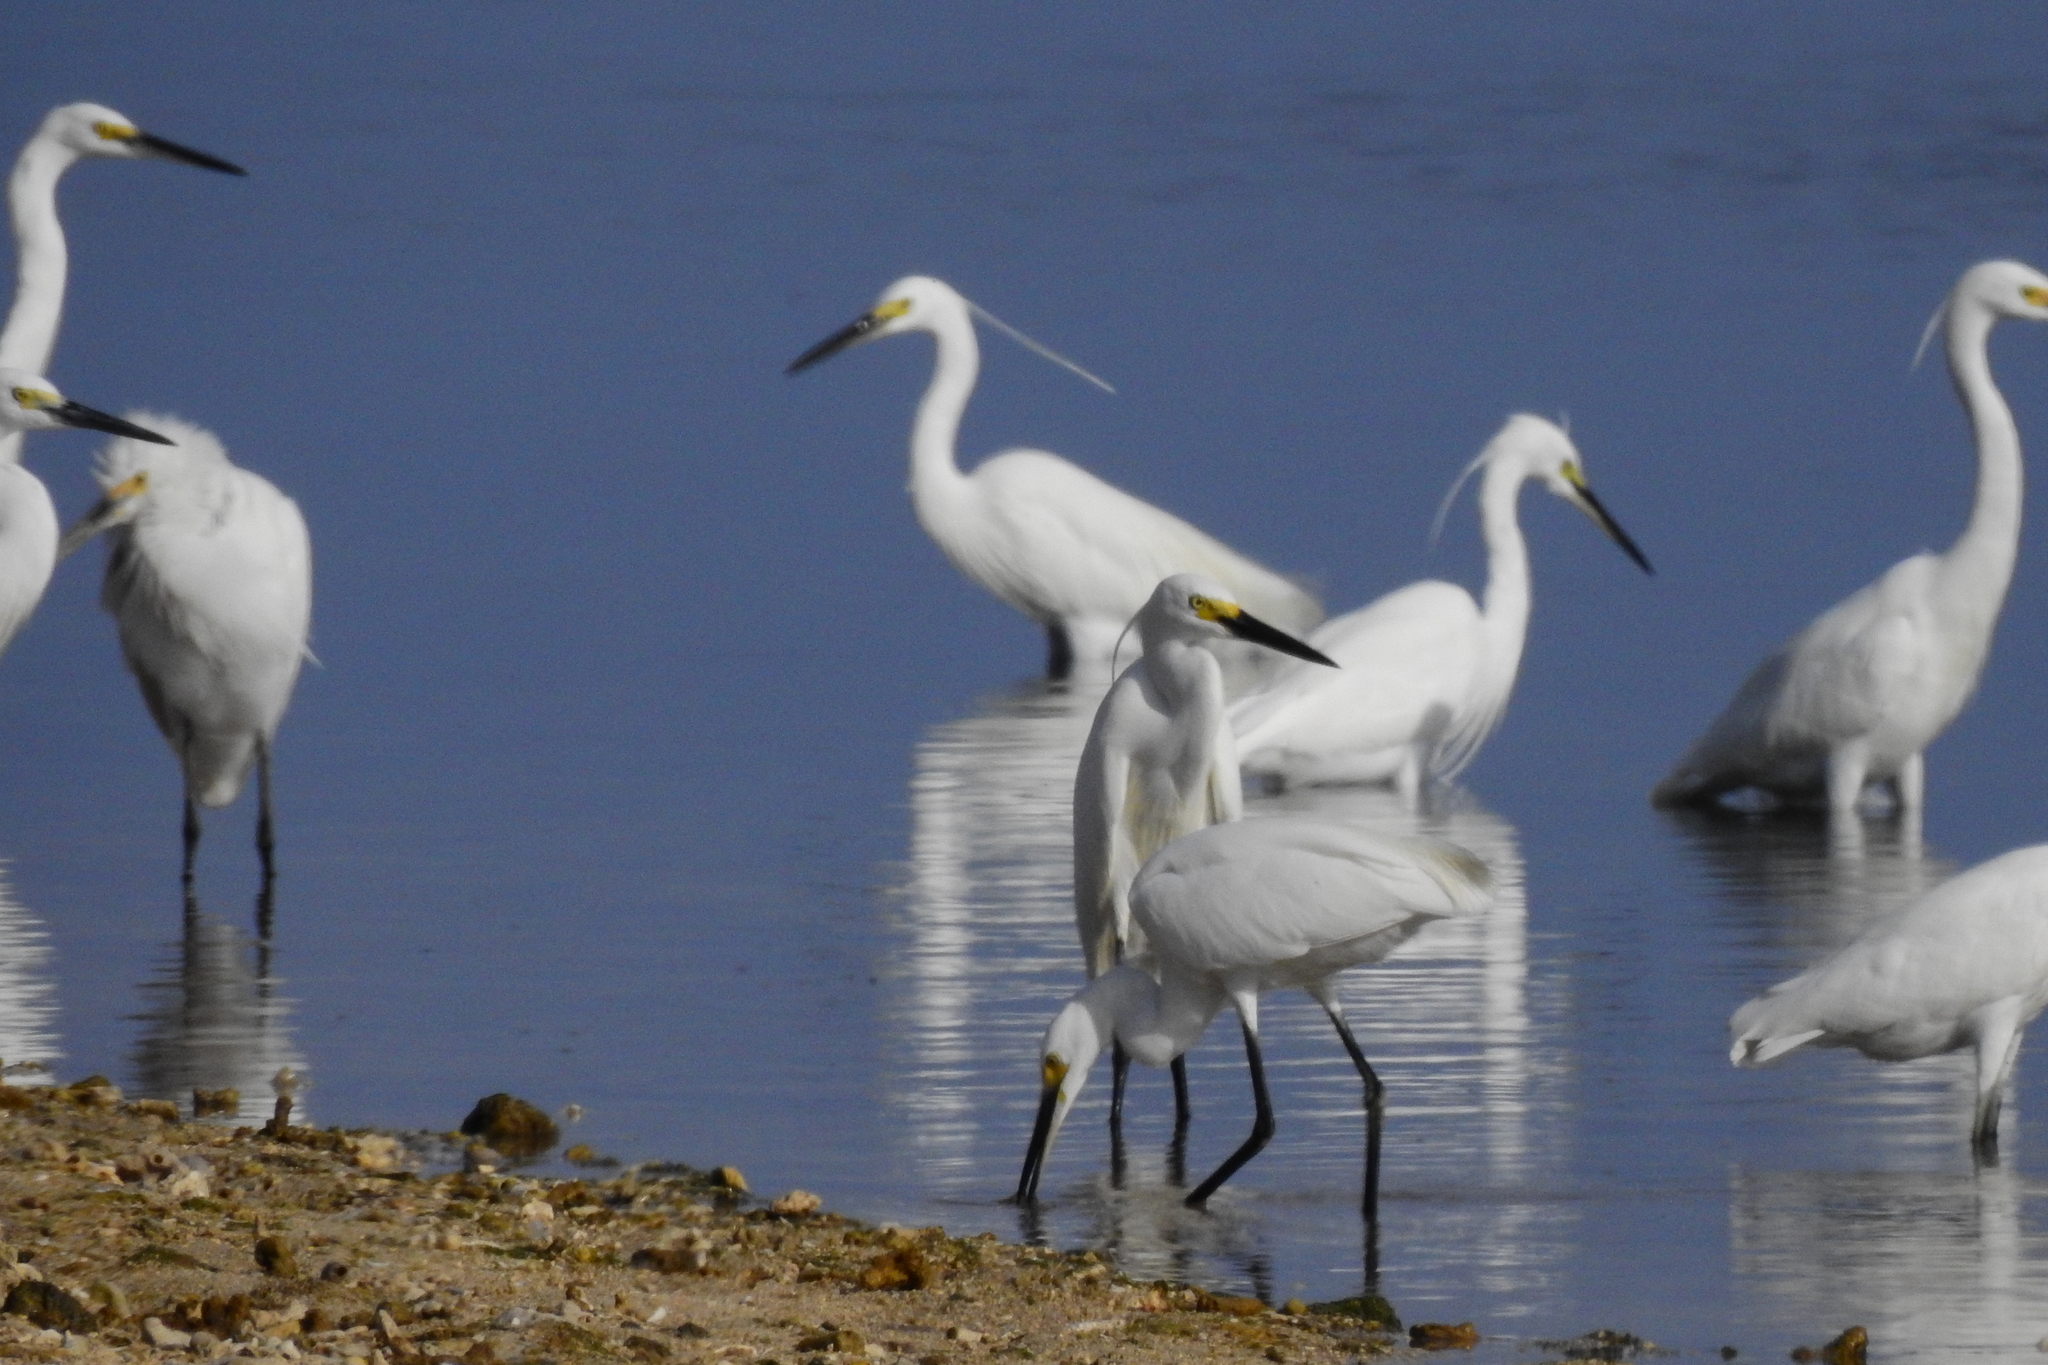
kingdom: Animalia
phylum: Chordata
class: Aves
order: Pelecaniformes
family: Ardeidae
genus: Egretta
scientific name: Egretta garzetta
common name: Little egret
